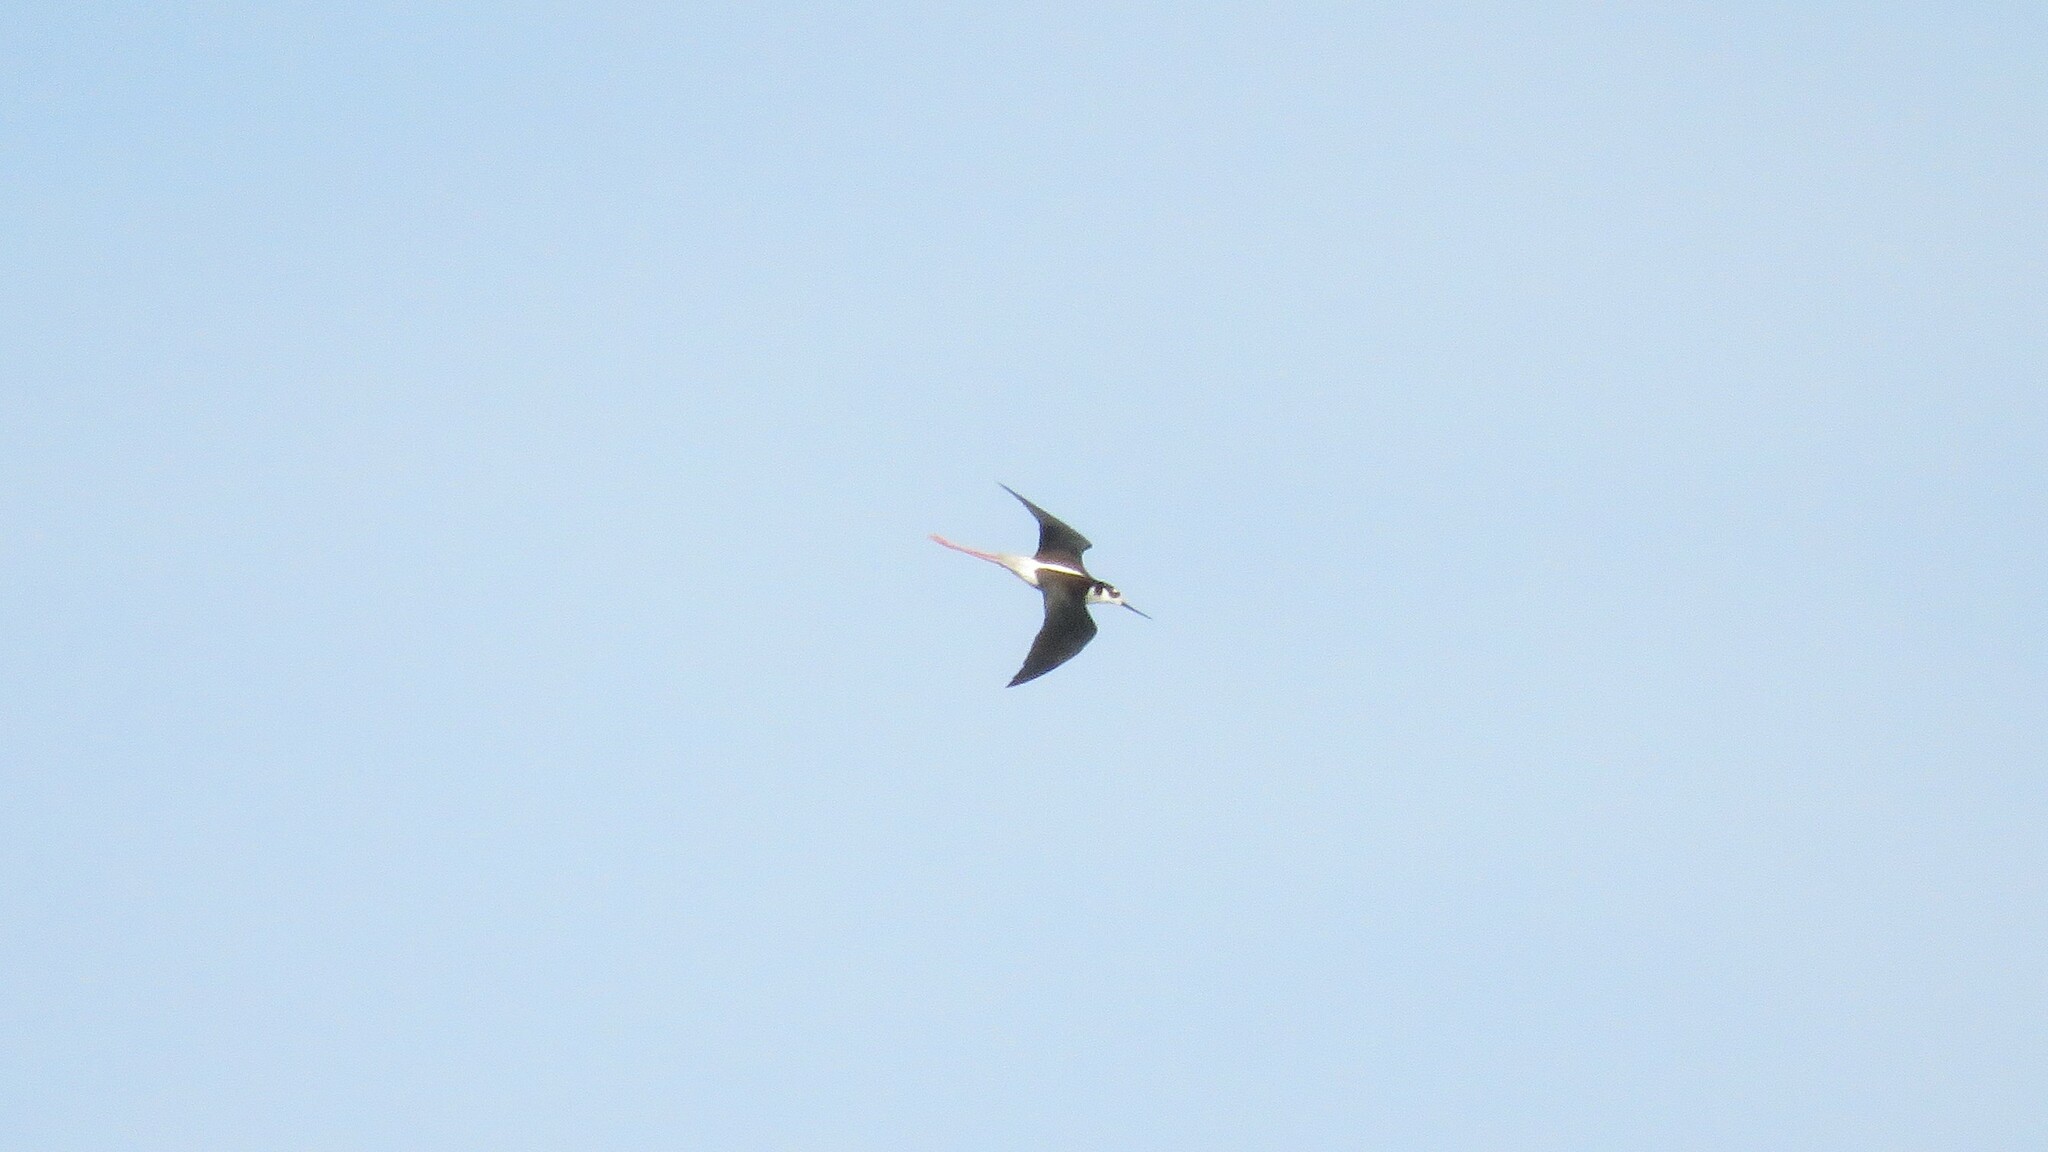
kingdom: Animalia
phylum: Chordata
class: Aves
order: Charadriiformes
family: Recurvirostridae
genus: Himantopus
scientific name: Himantopus mexicanus
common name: Black-necked stilt
